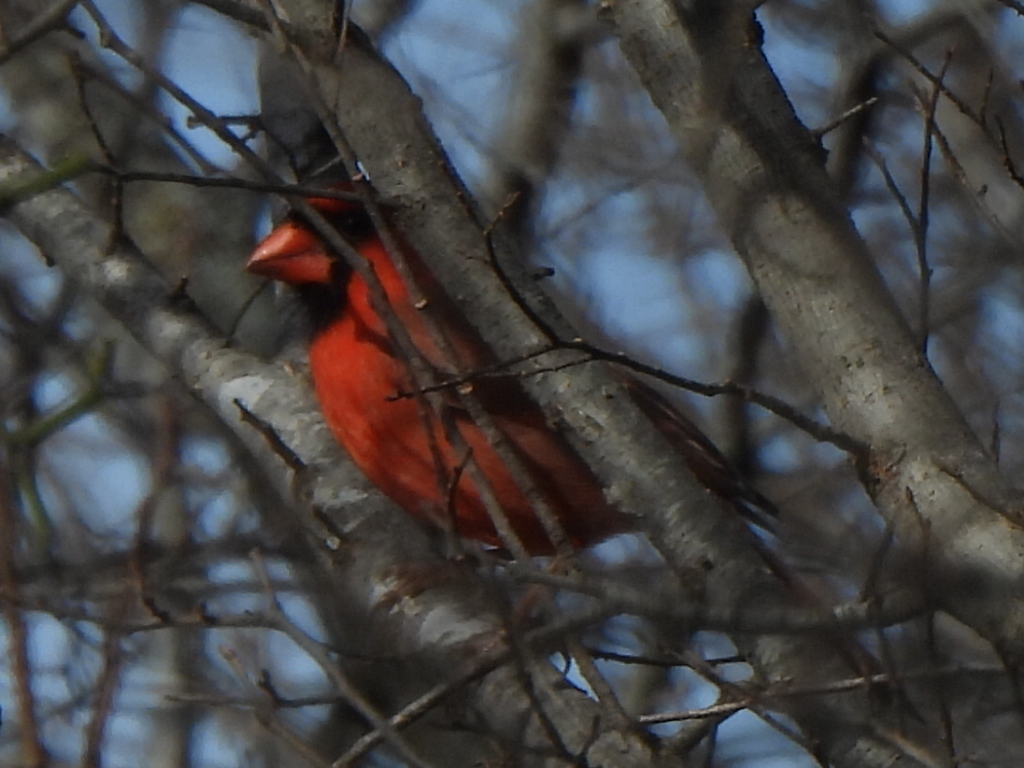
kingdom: Animalia
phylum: Chordata
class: Aves
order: Passeriformes
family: Cardinalidae
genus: Cardinalis
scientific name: Cardinalis cardinalis
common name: Northern cardinal
